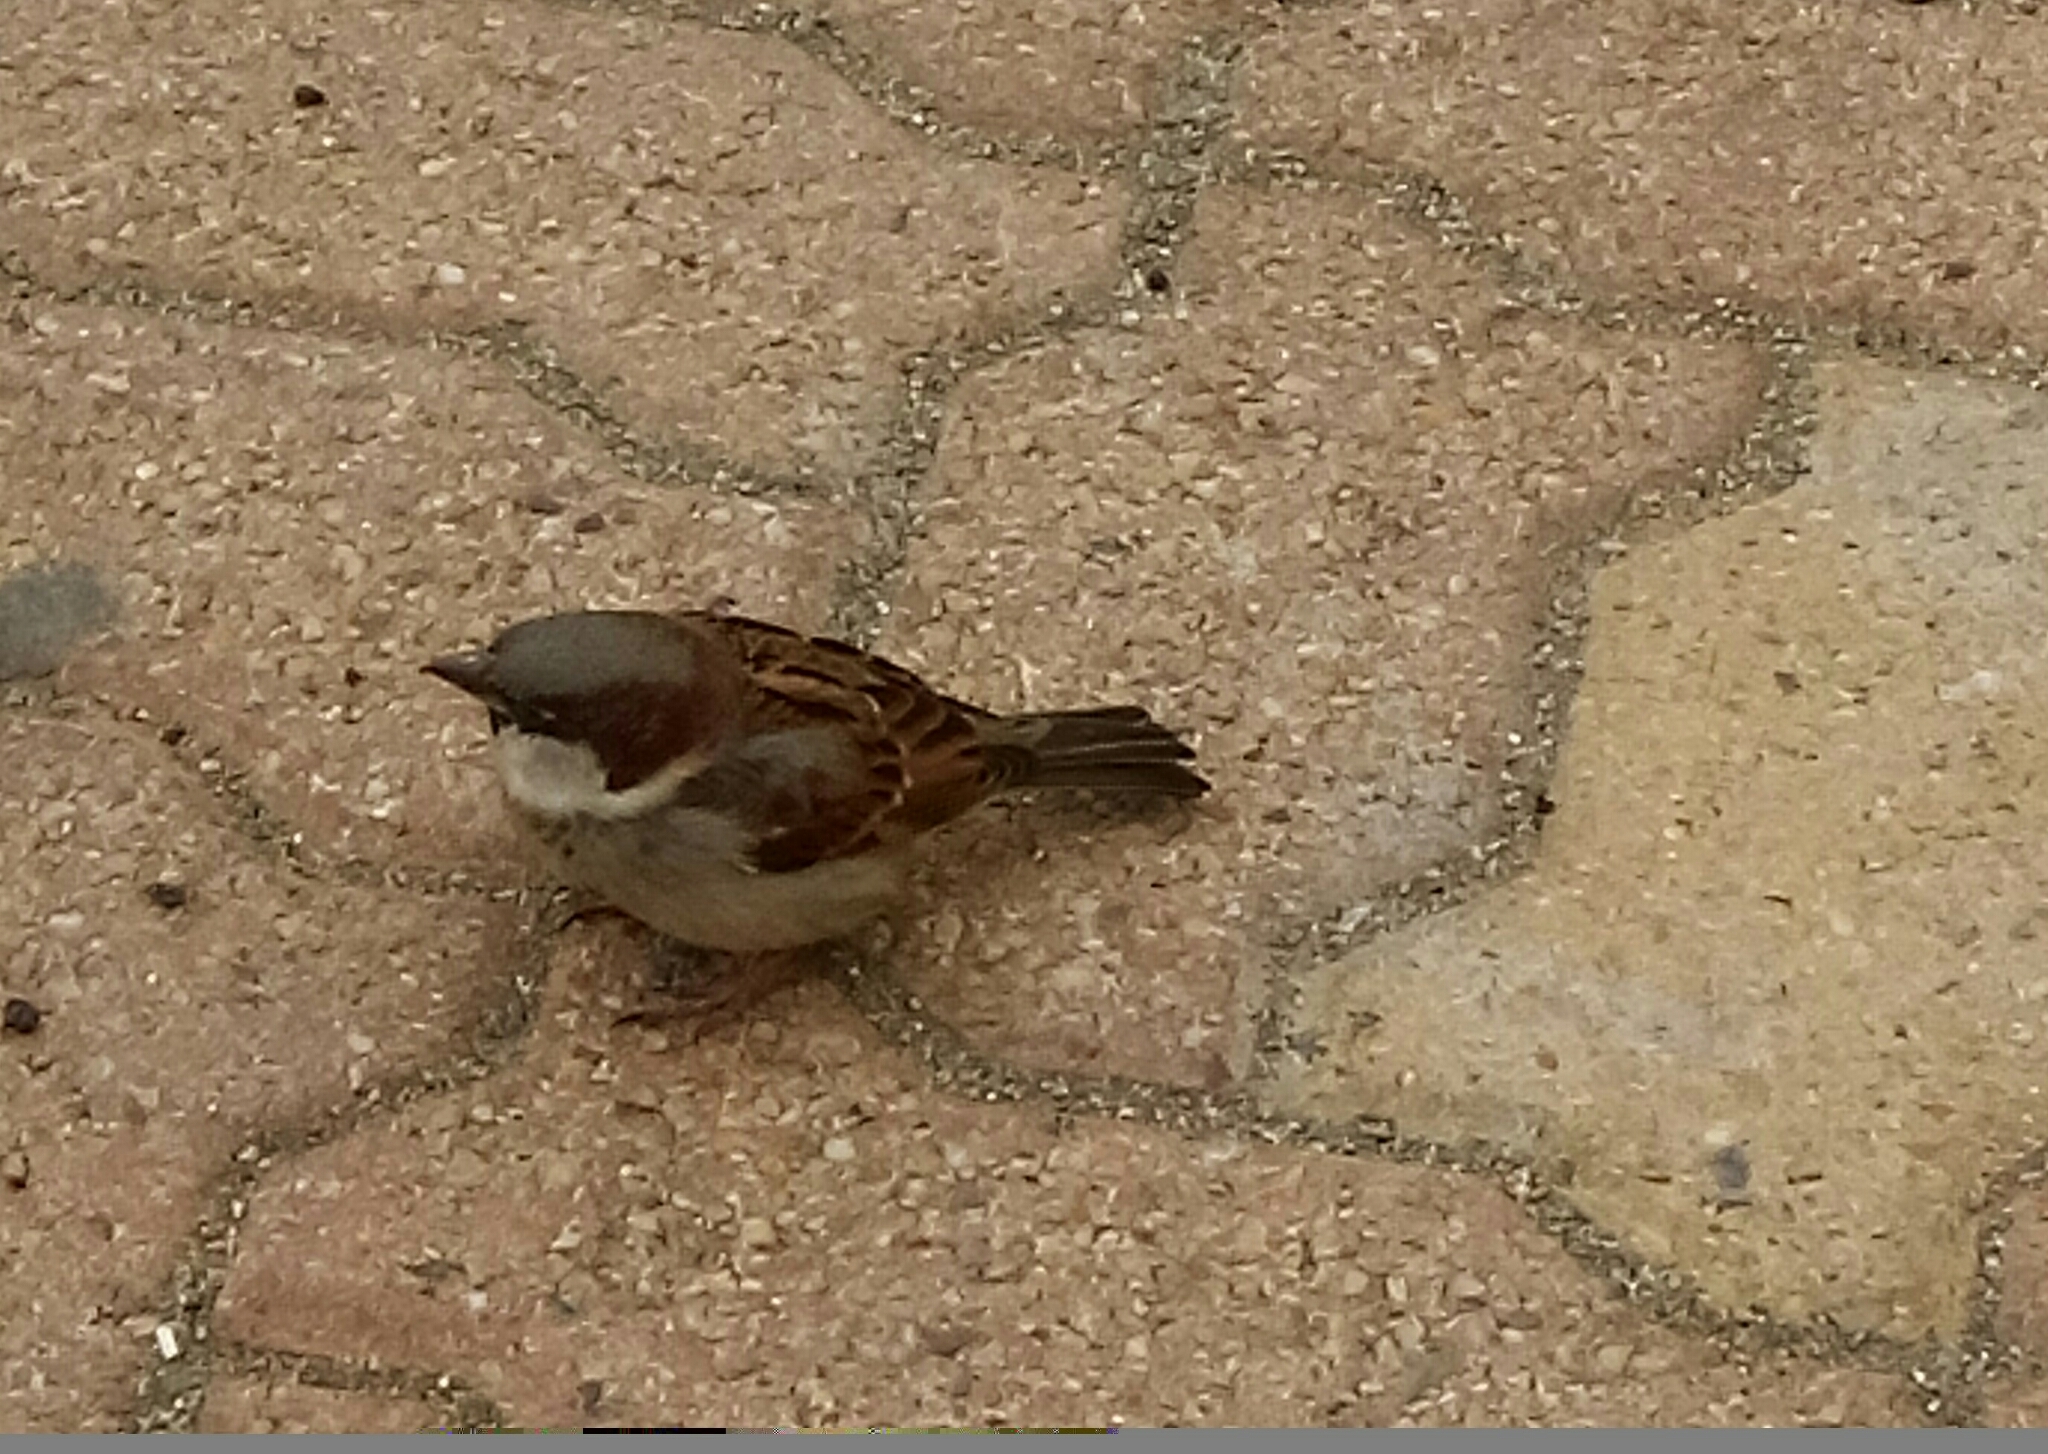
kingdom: Animalia
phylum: Chordata
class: Aves
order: Passeriformes
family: Passeridae
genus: Passer
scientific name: Passer domesticus
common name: House sparrow
